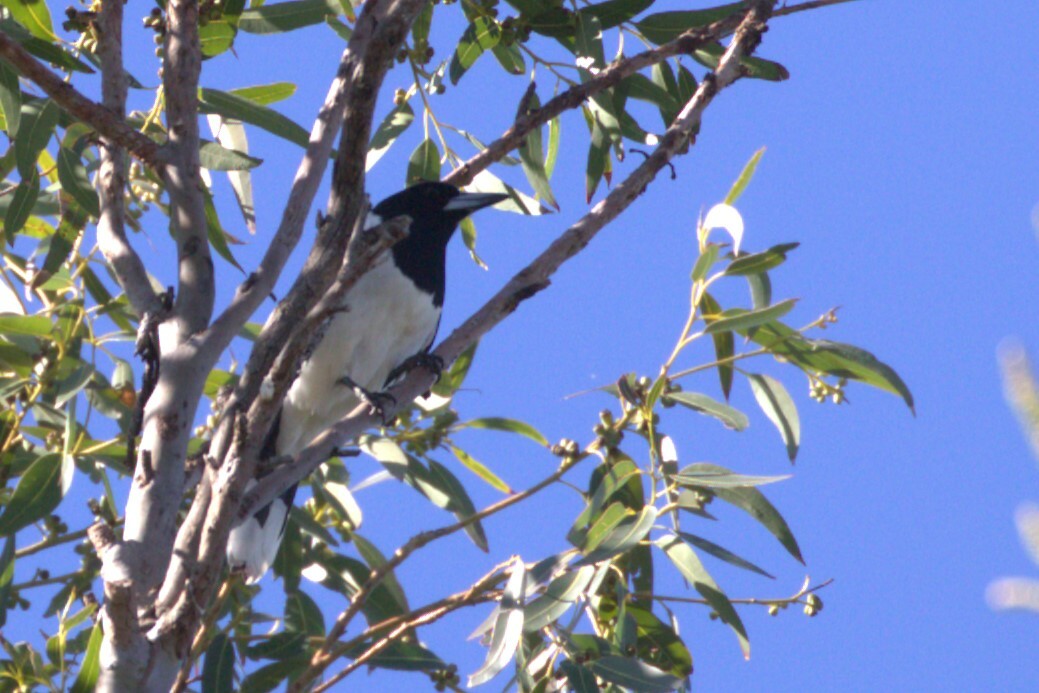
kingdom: Animalia
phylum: Chordata
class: Aves
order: Passeriformes
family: Cracticidae
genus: Cracticus
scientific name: Cracticus nigrogularis
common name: Pied butcherbird
